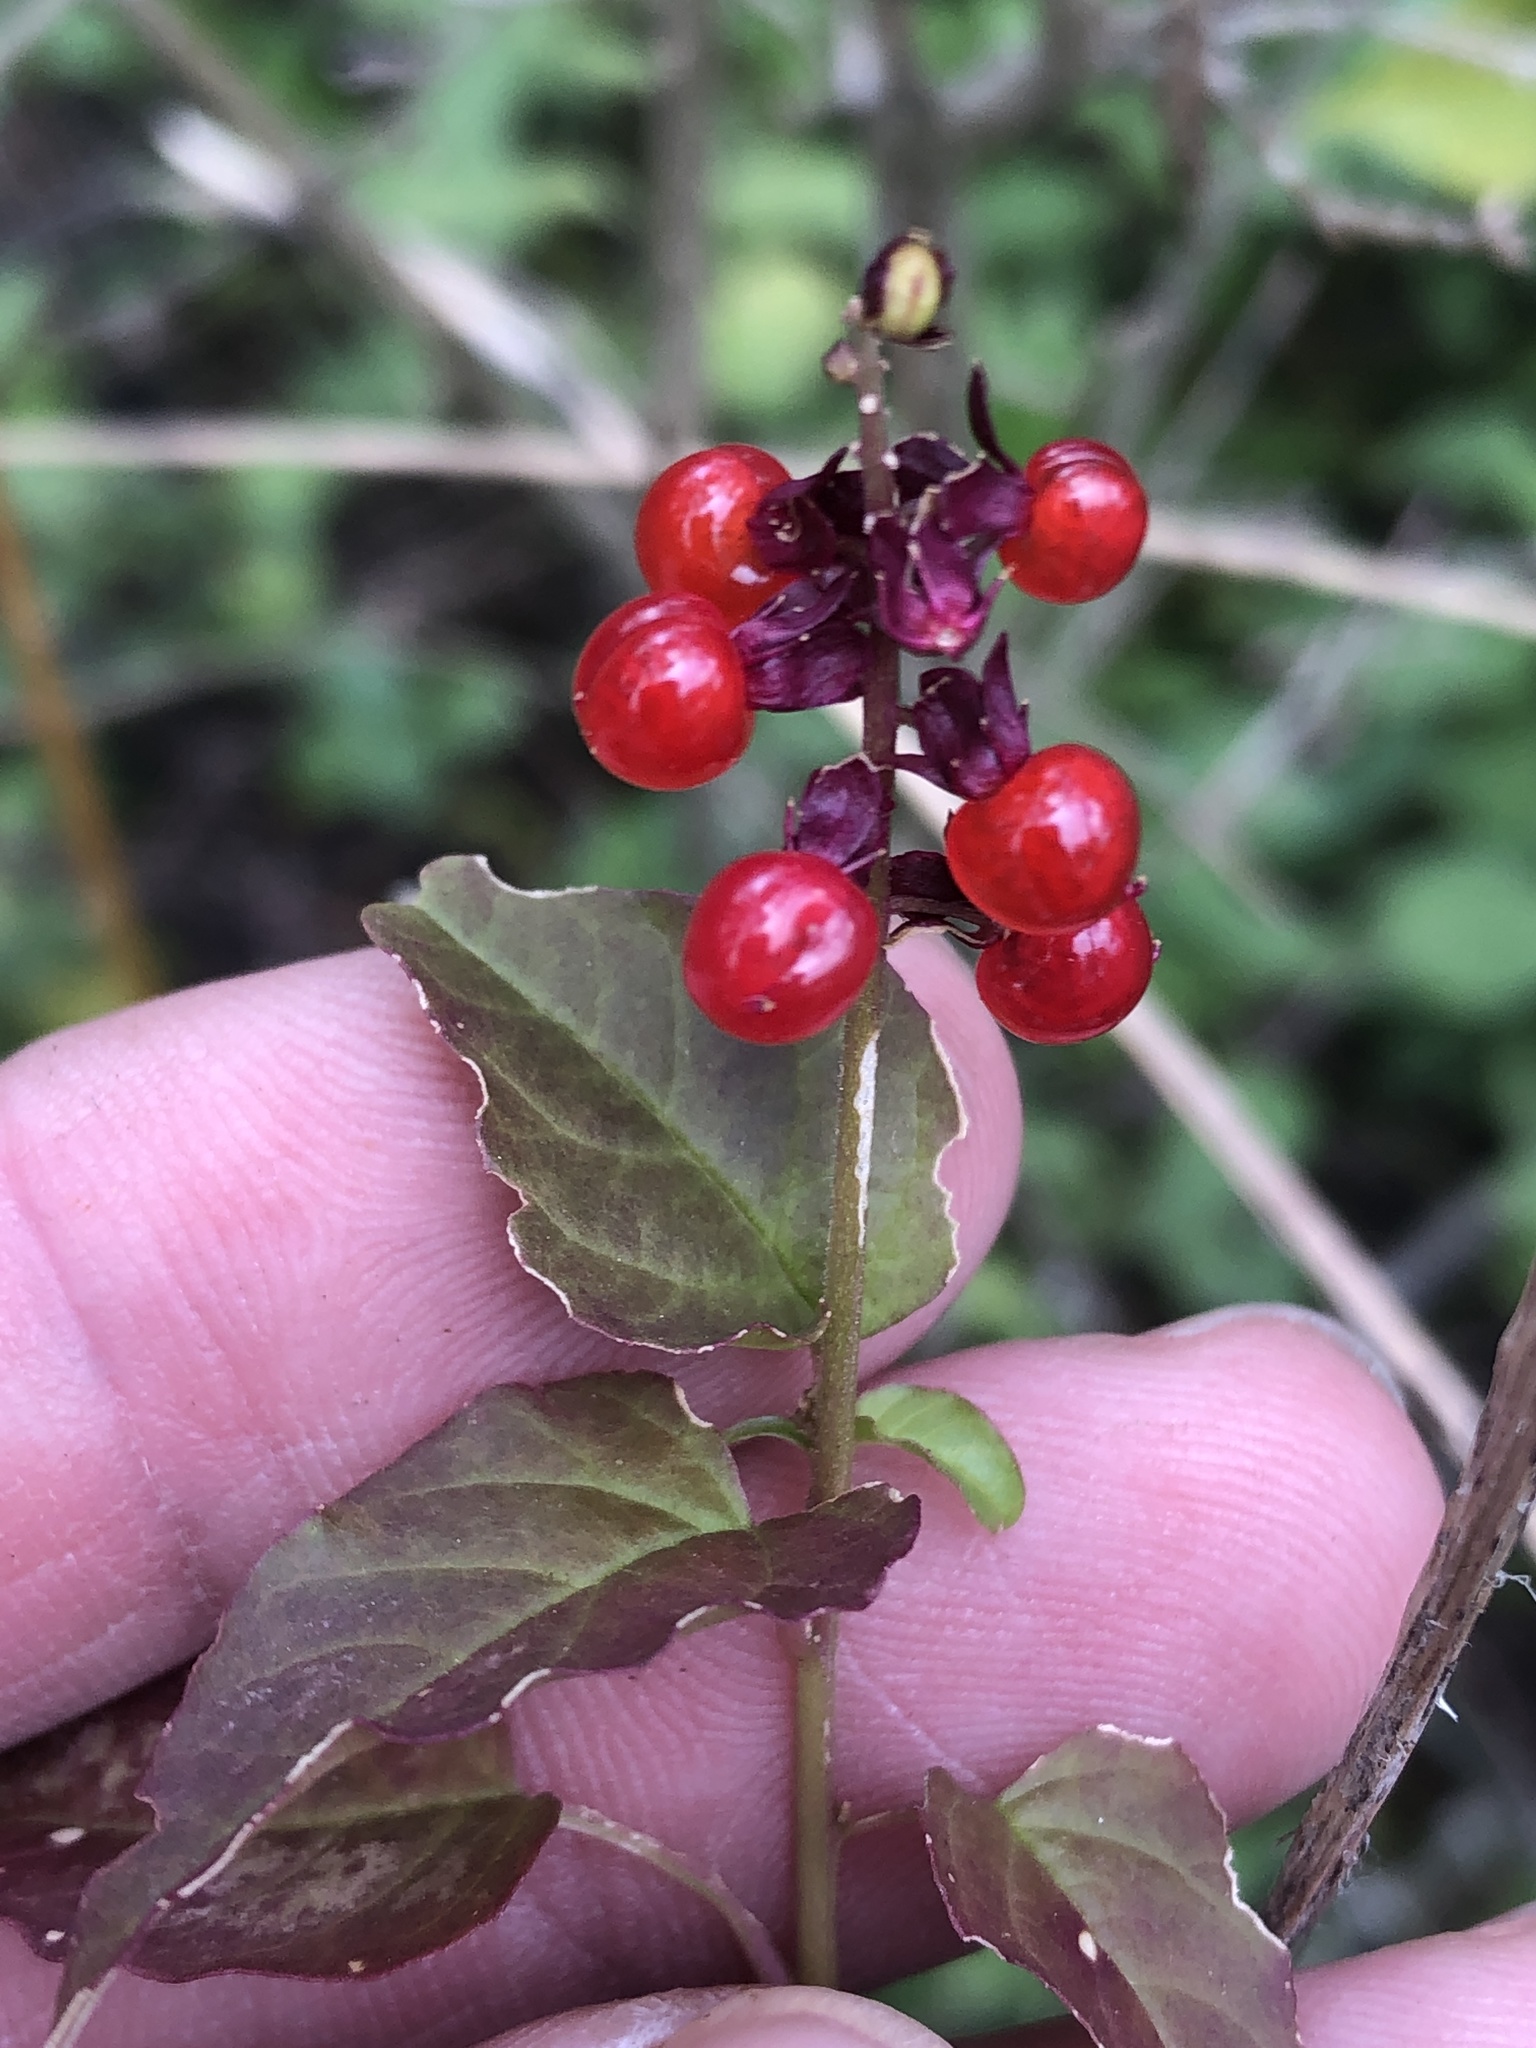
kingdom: Plantae
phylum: Tracheophyta
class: Magnoliopsida
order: Caryophyllales
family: Phytolaccaceae
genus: Rivina
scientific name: Rivina humilis
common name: Rougeplant
